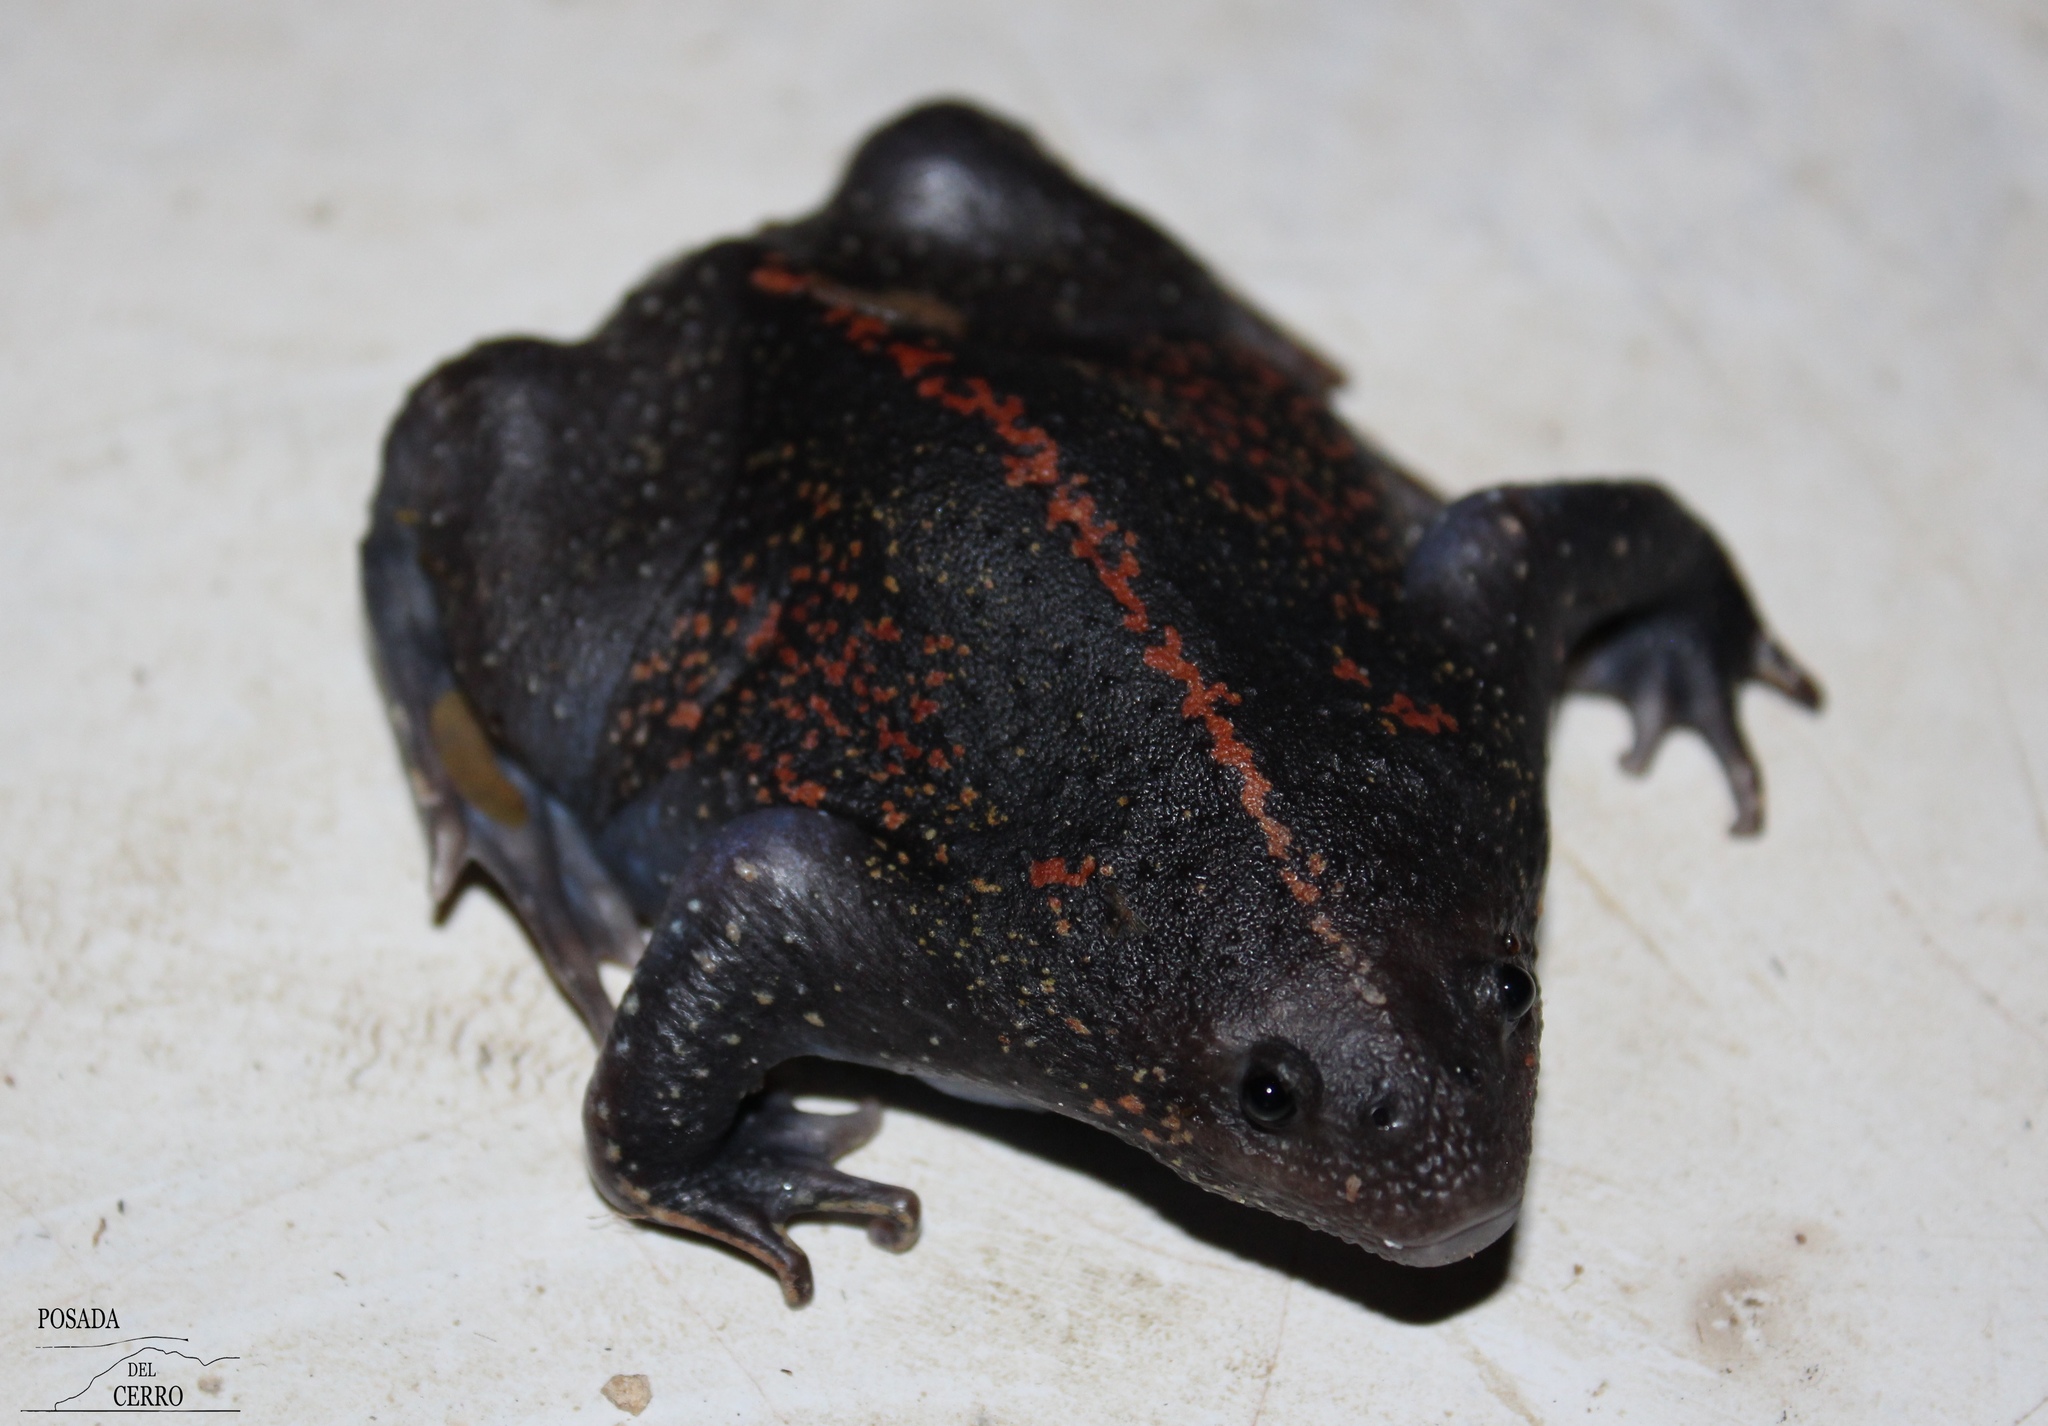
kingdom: Animalia
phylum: Chordata
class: Amphibia
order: Anura
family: Rhinophrynidae
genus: Rhinophrynus
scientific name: Rhinophrynus dorsalis
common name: Mexican burrowing toad
